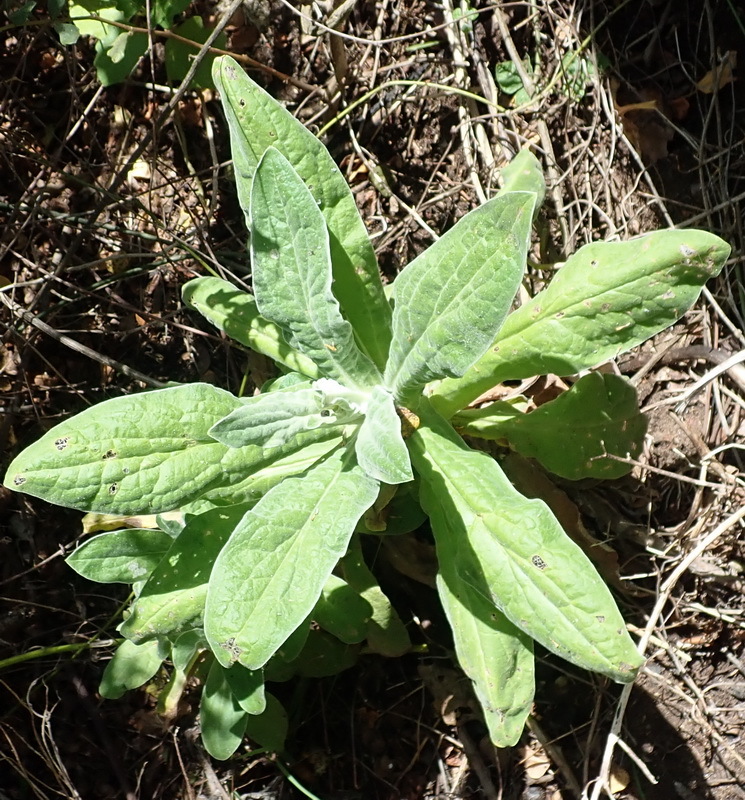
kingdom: Plantae
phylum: Tracheophyta
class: Magnoliopsida
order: Asterales
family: Asteraceae
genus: Helichrysum
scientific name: Helichrysum foetidum
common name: Stinking everlasting
